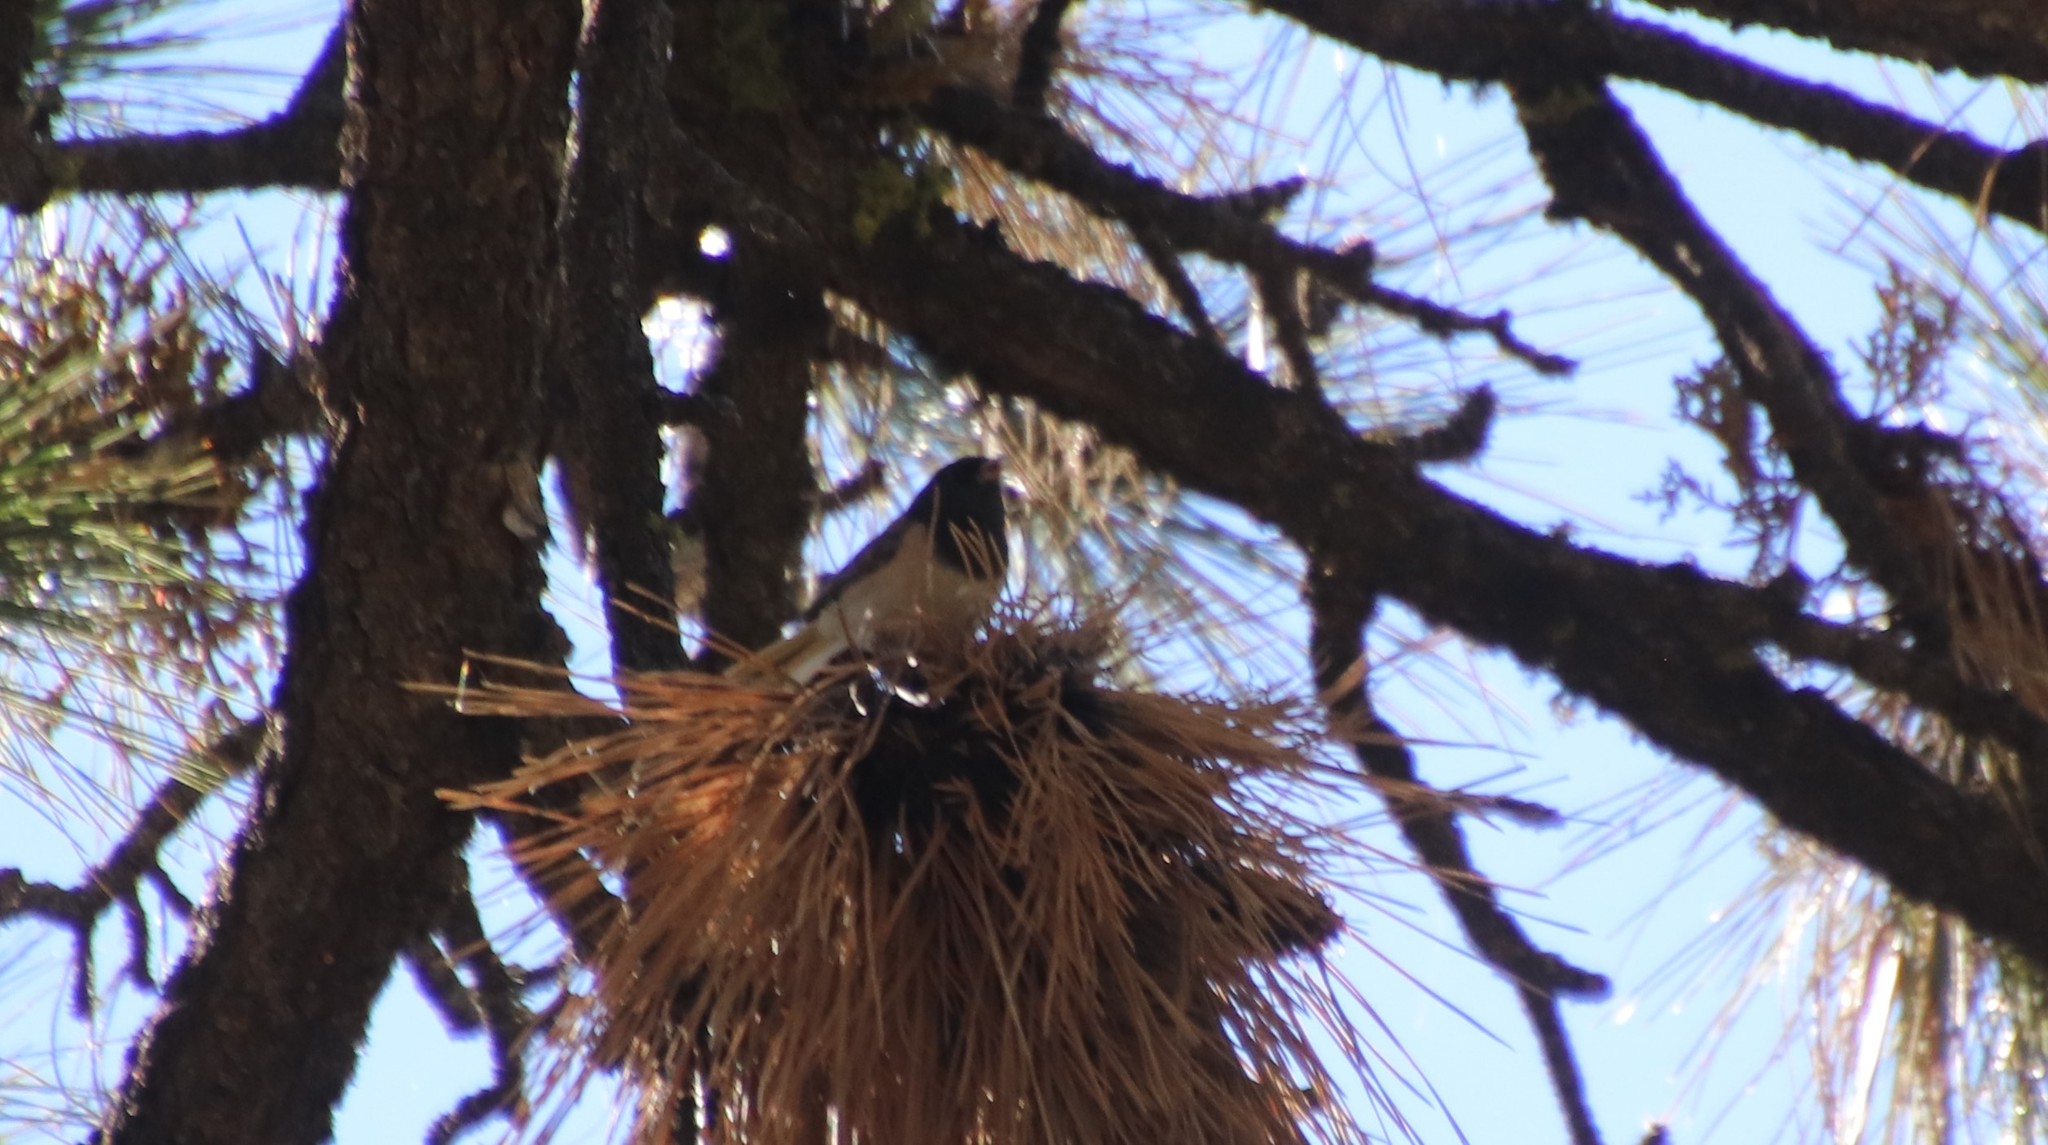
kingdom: Animalia
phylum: Chordata
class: Aves
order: Passeriformes
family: Passerellidae
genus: Junco
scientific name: Junco hyemalis
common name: Dark-eyed junco
